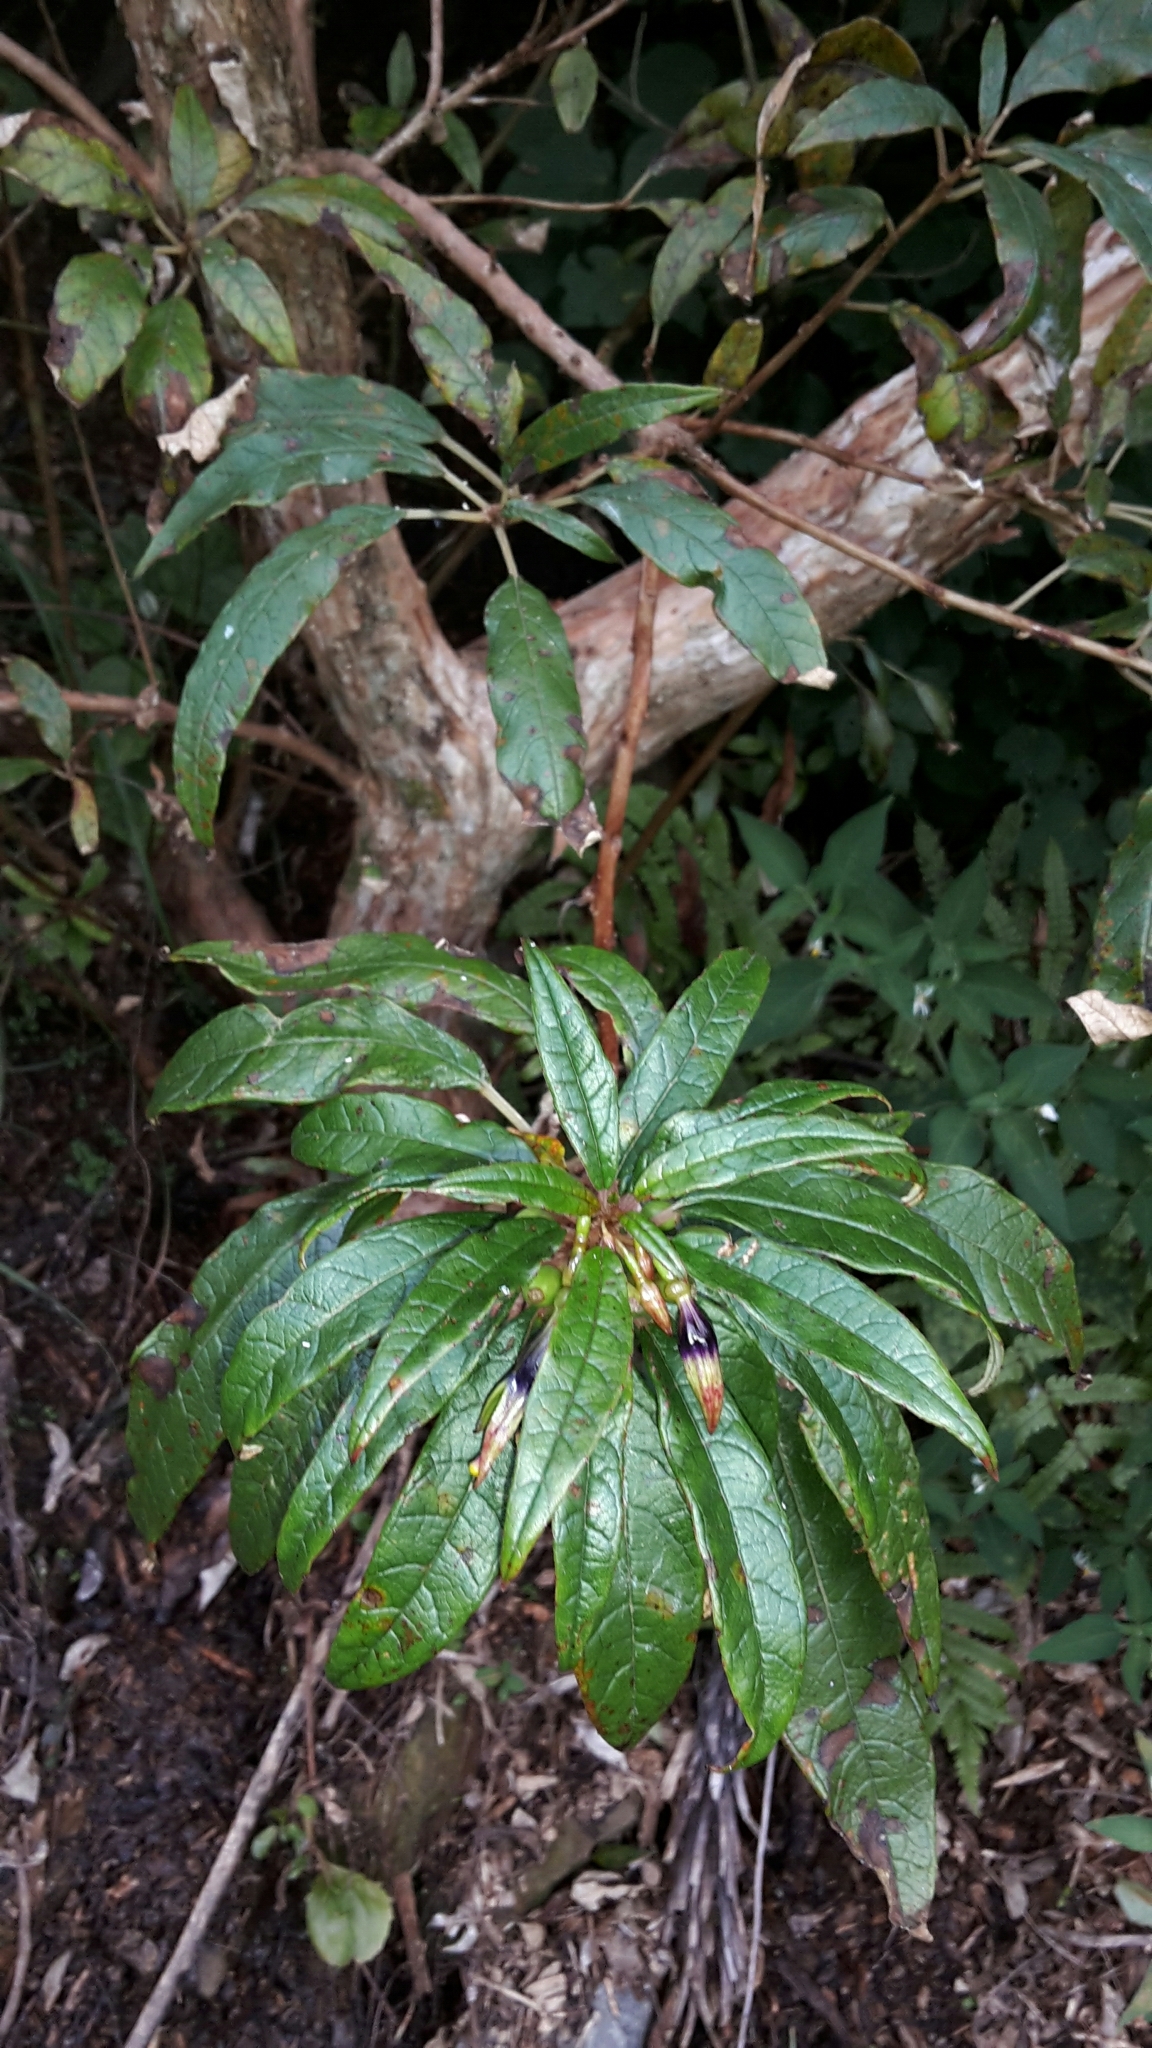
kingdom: Plantae
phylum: Tracheophyta
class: Magnoliopsida
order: Myrtales
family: Onagraceae
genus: Fuchsia
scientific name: Fuchsia excorticata
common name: Tree fuchsia
